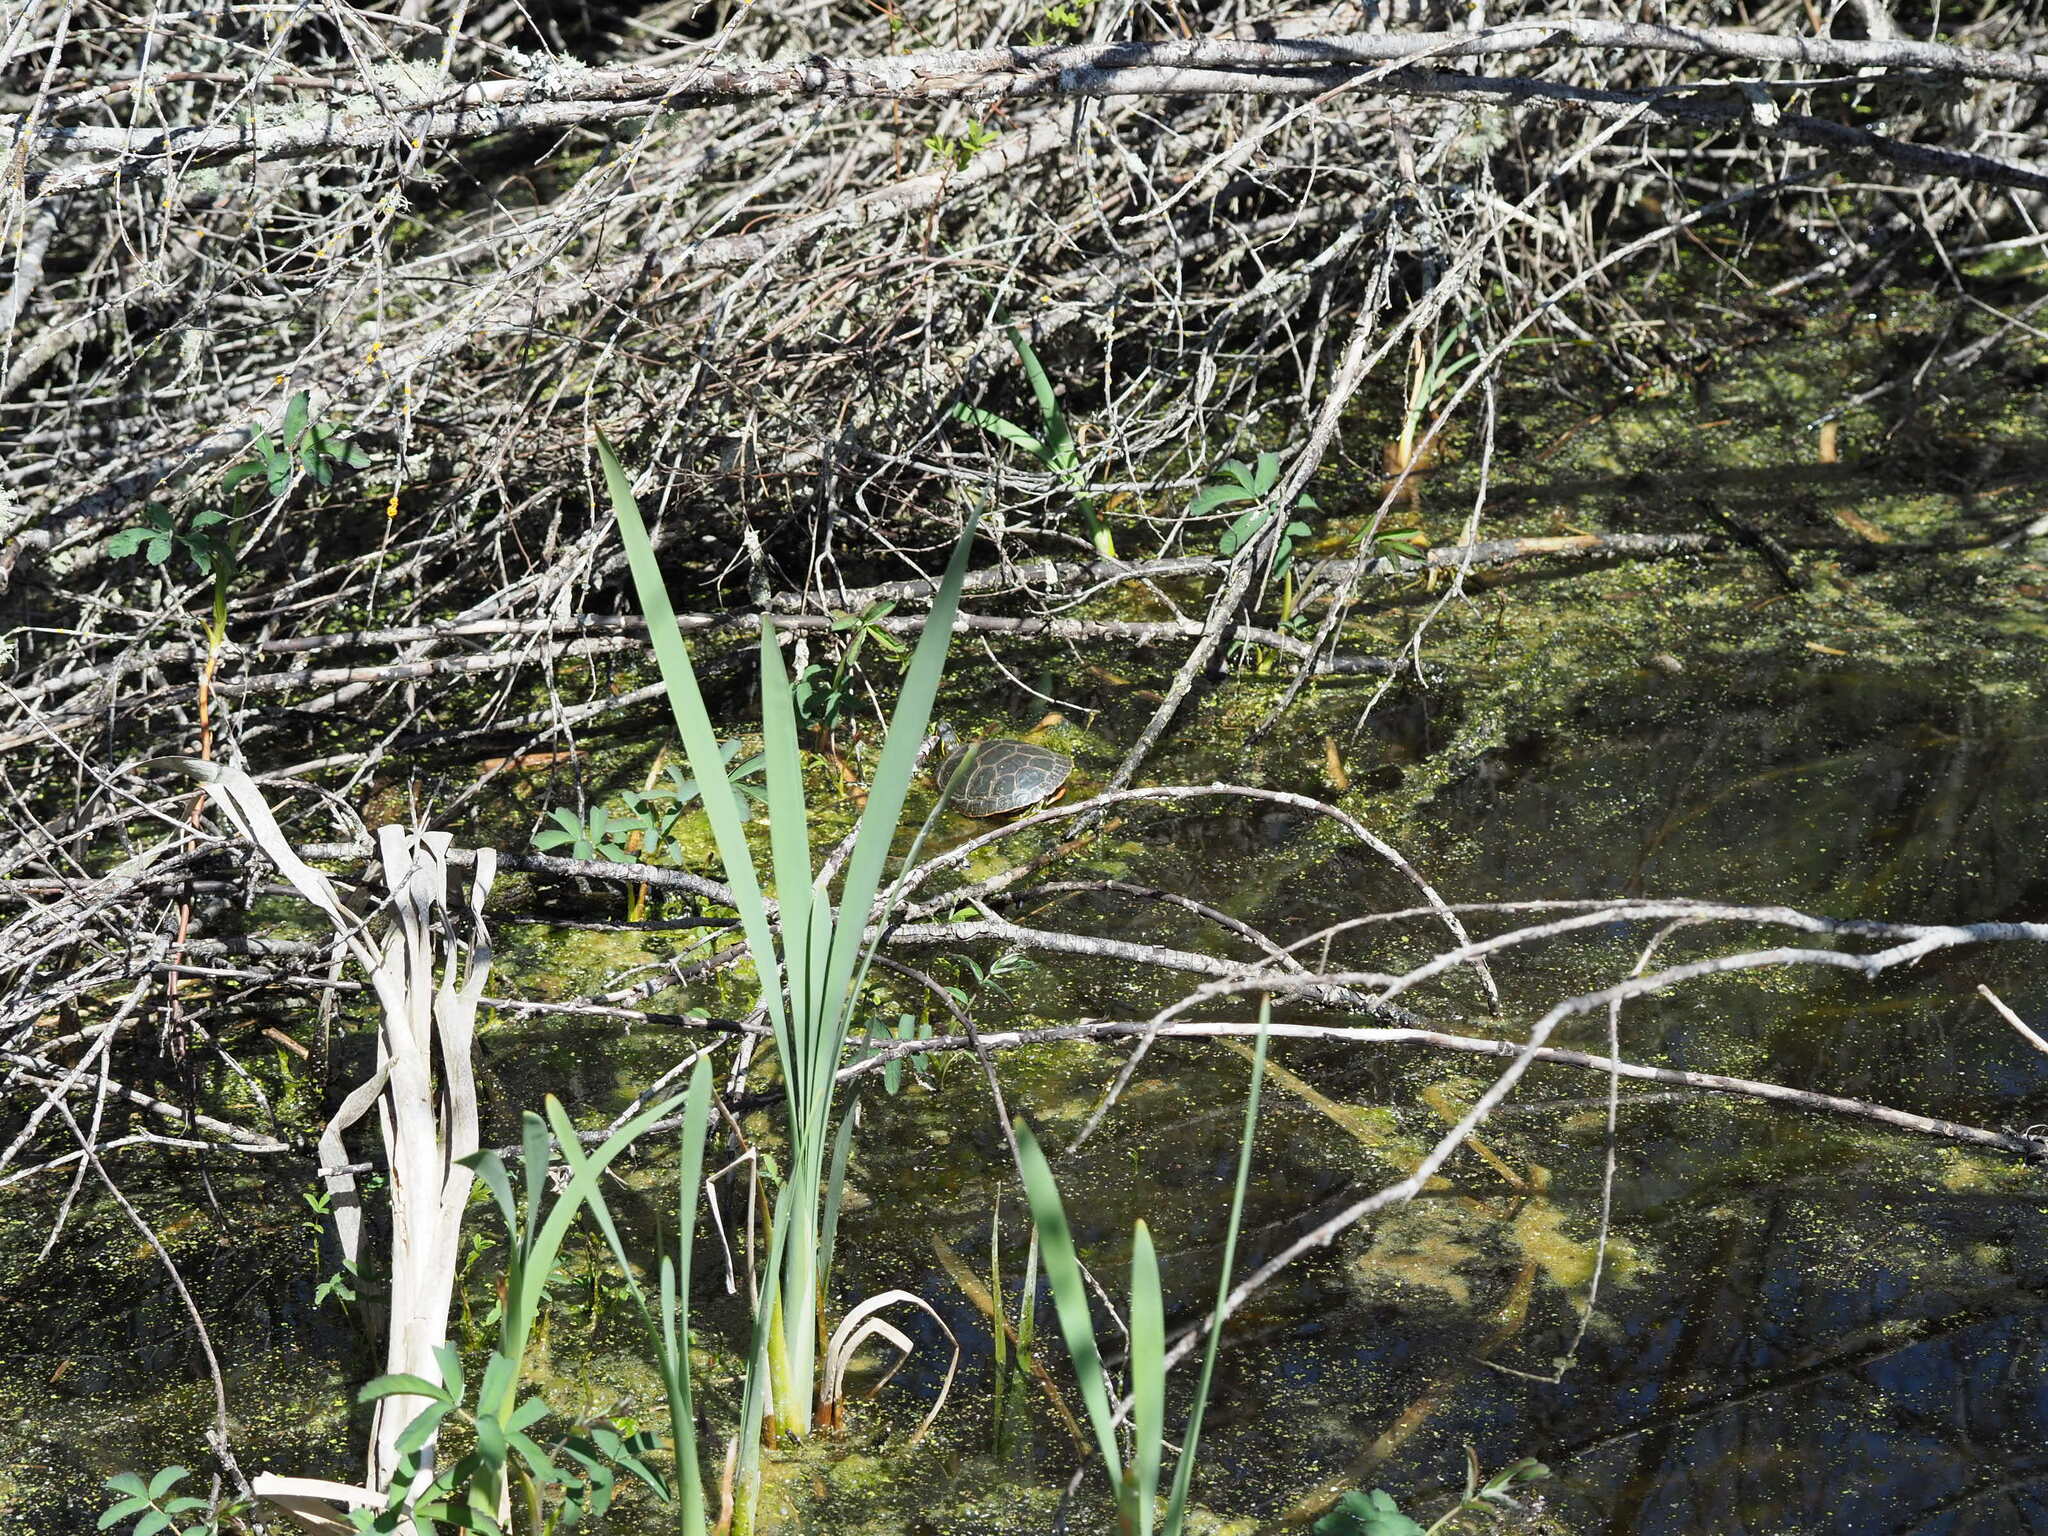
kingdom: Animalia
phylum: Chordata
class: Testudines
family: Emydidae
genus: Chrysemys
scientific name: Chrysemys picta
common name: Painted turtle
